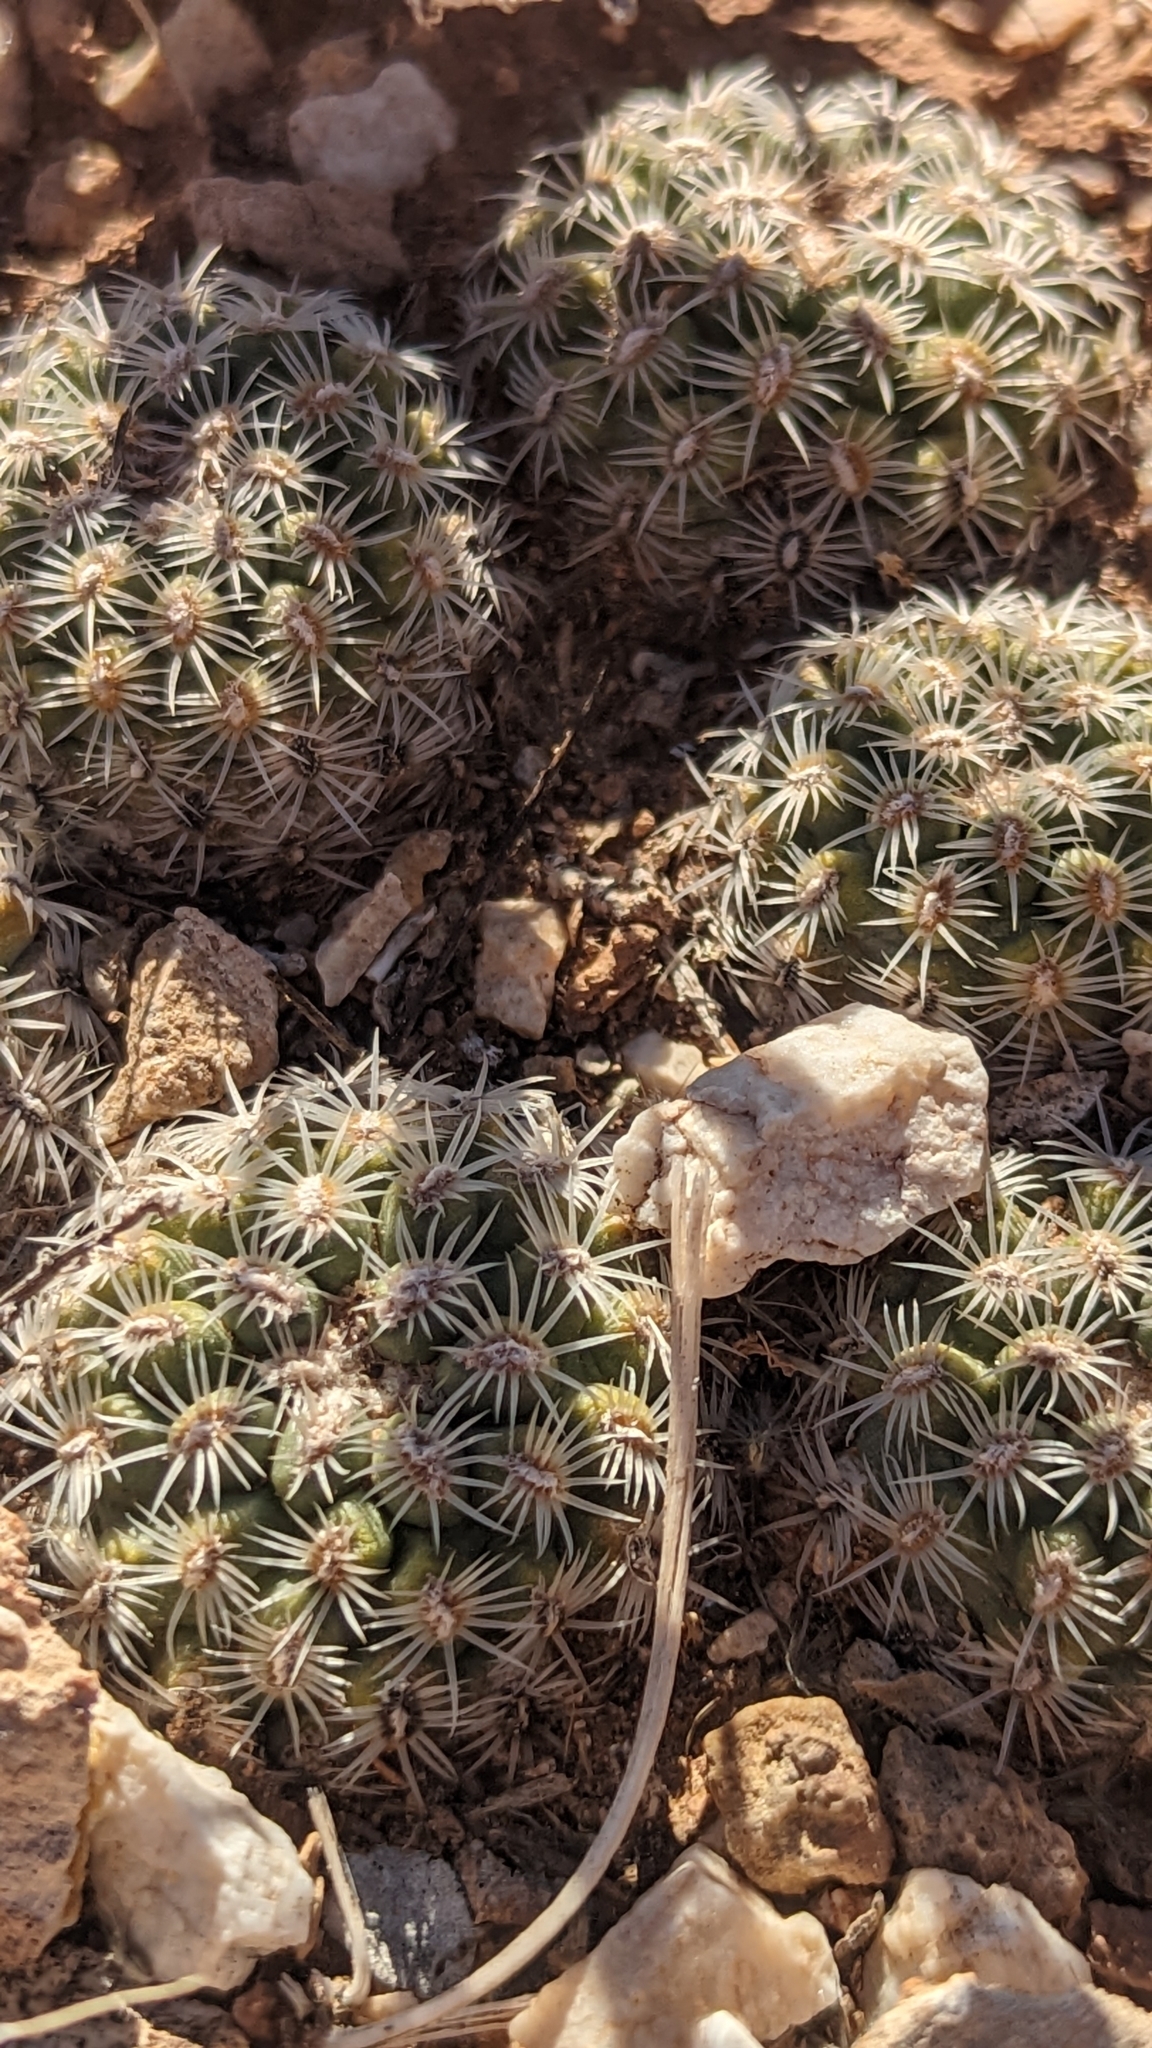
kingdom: Plantae
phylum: Tracheophyta
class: Magnoliopsida
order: Caryophyllales
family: Cactaceae
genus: Pediocactus
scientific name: Pediocactus bradyi
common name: Brady's hedgehog cactus
